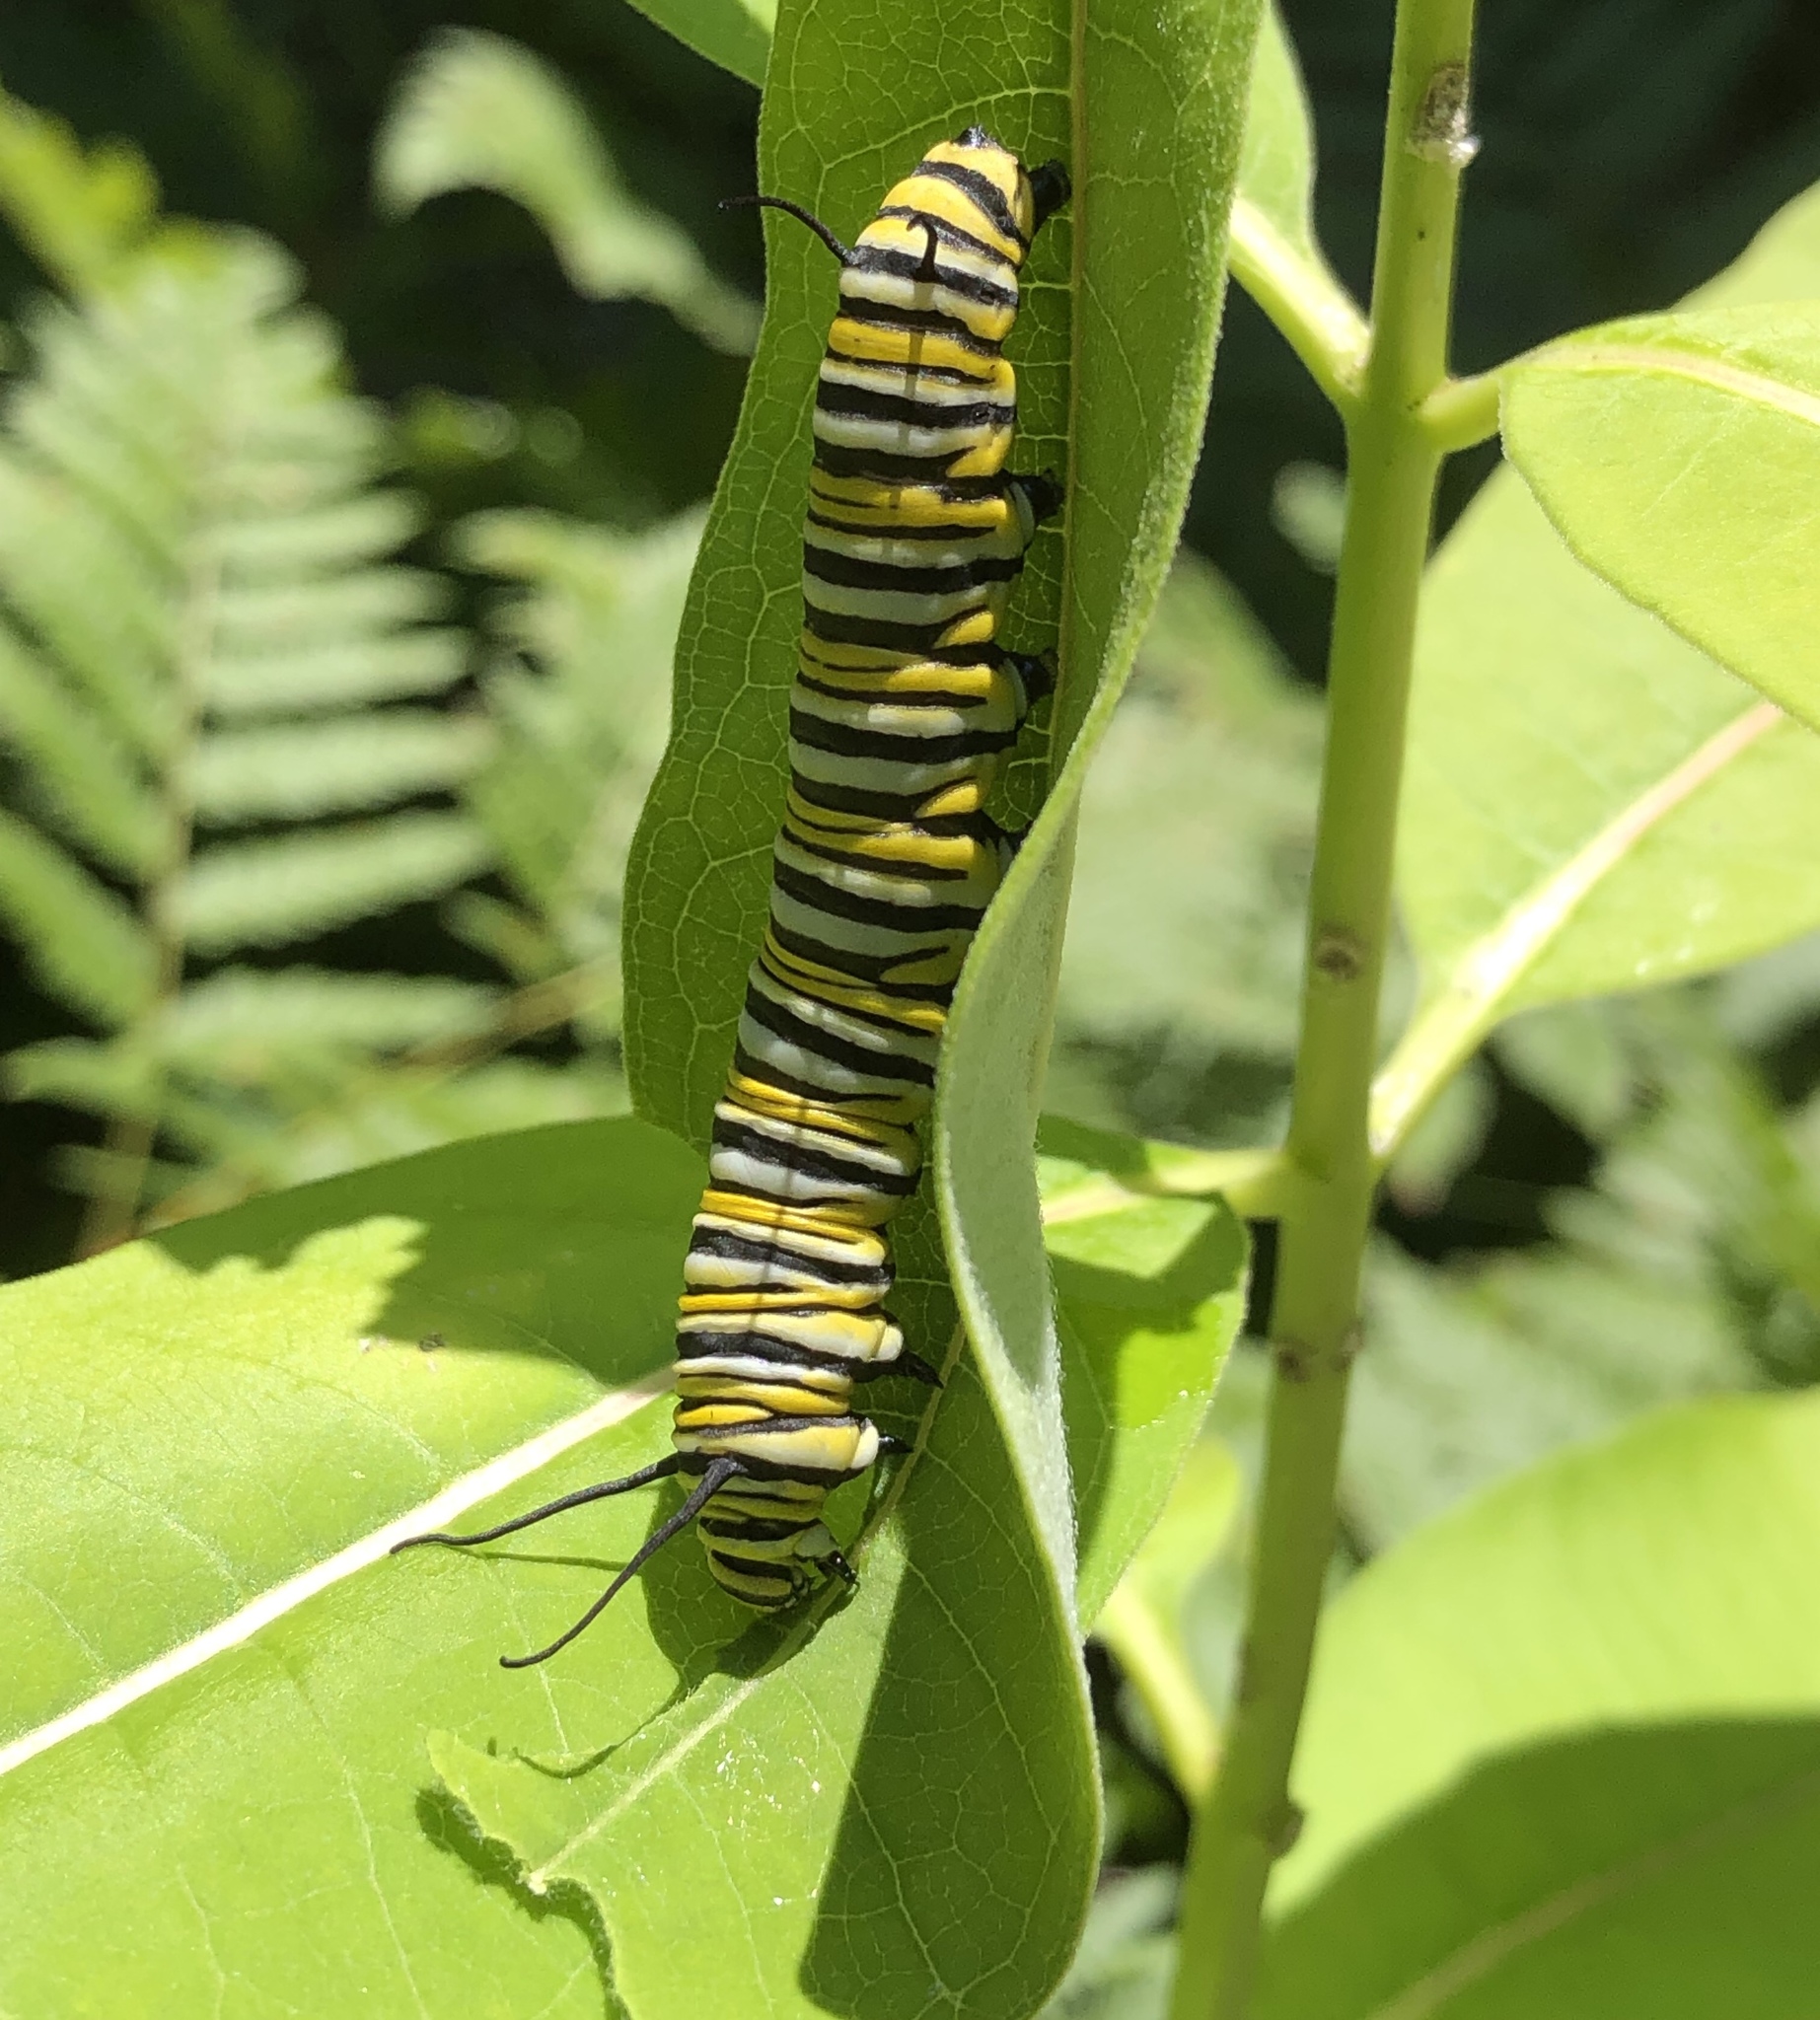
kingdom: Animalia
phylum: Arthropoda
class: Insecta
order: Lepidoptera
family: Nymphalidae
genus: Danaus
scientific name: Danaus plexippus
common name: Monarch
